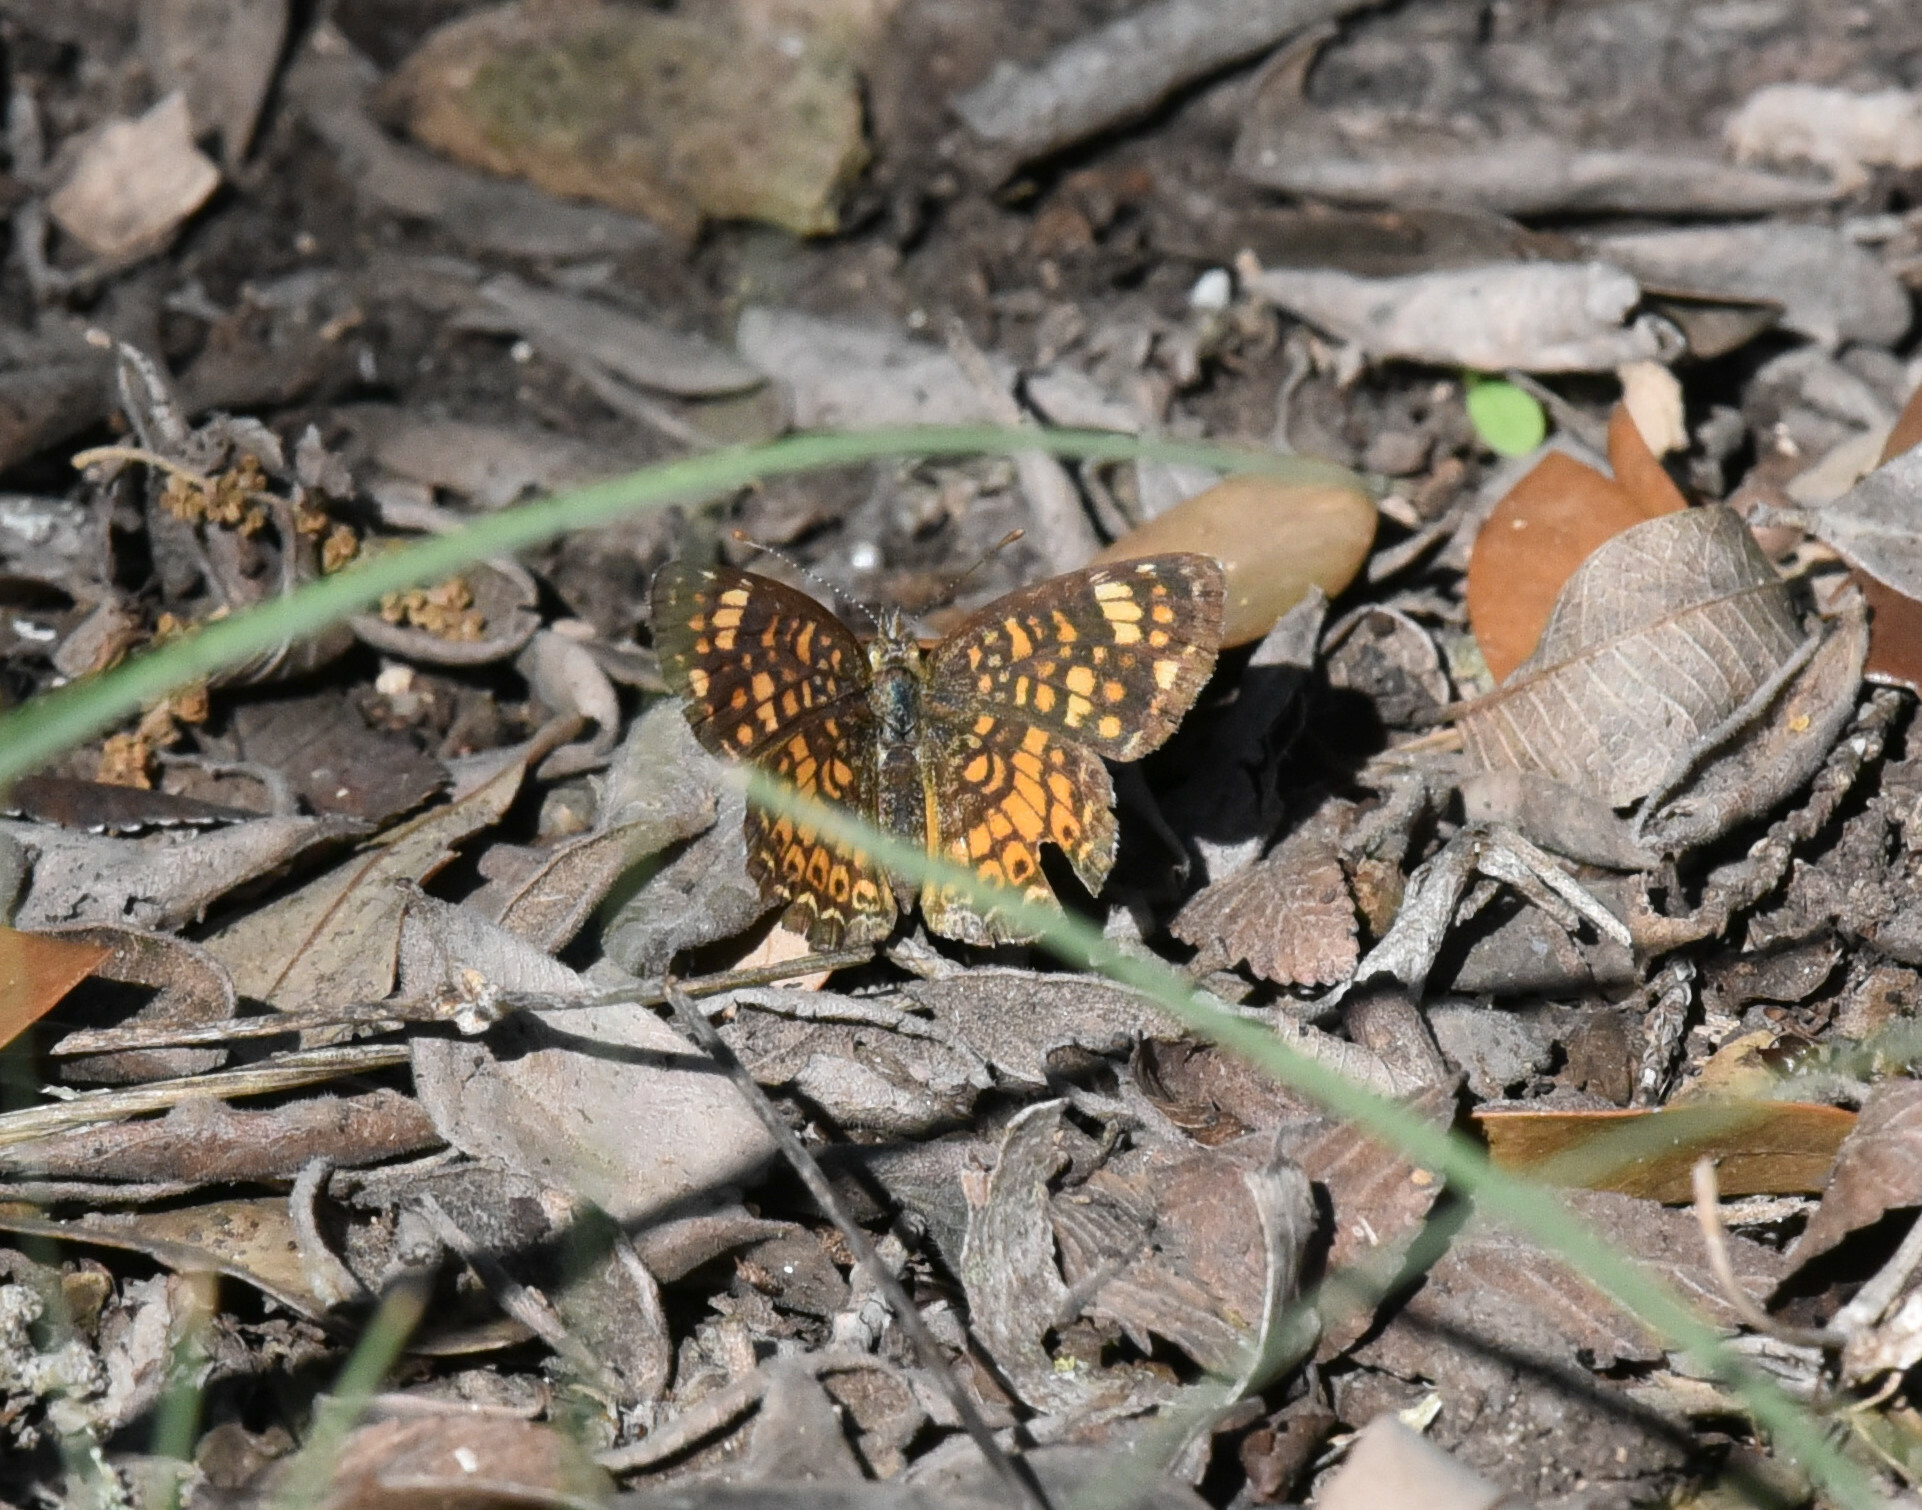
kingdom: Animalia
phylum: Arthropoda
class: Insecta
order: Lepidoptera
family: Nymphalidae
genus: Phyciodes
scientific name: Phyciodes vesta
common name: Vesta crescent
